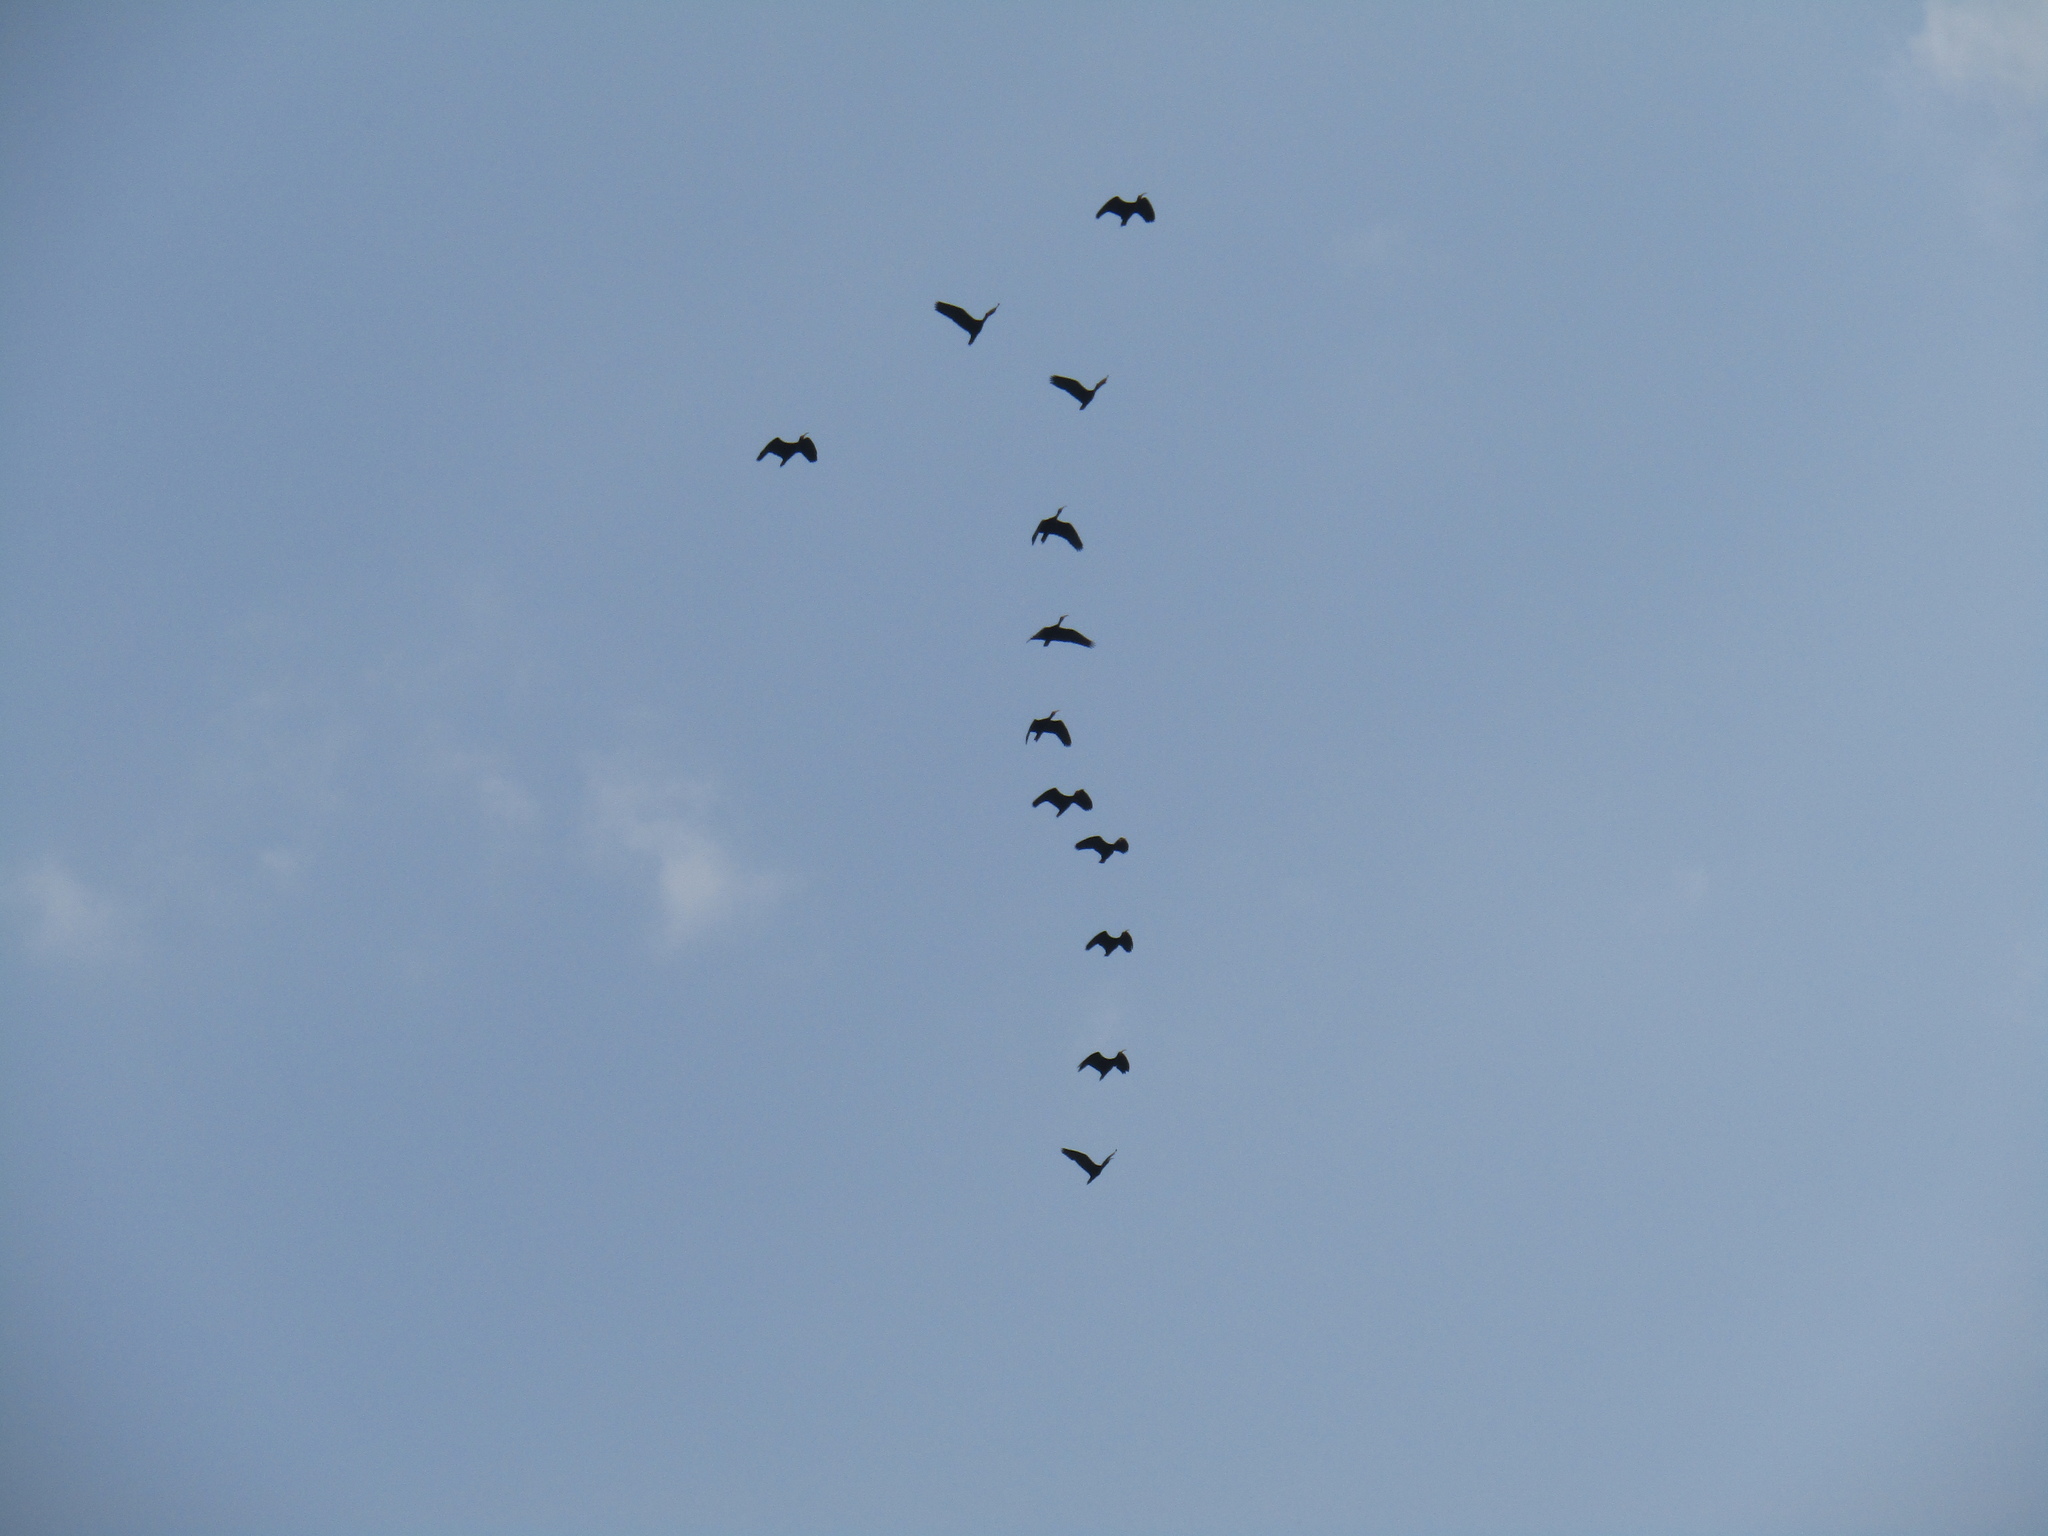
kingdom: Animalia
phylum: Chordata
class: Aves
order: Pelecaniformes
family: Threskiornithidae
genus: Phimosus
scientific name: Phimosus infuscatus
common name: Bare-faced ibis
